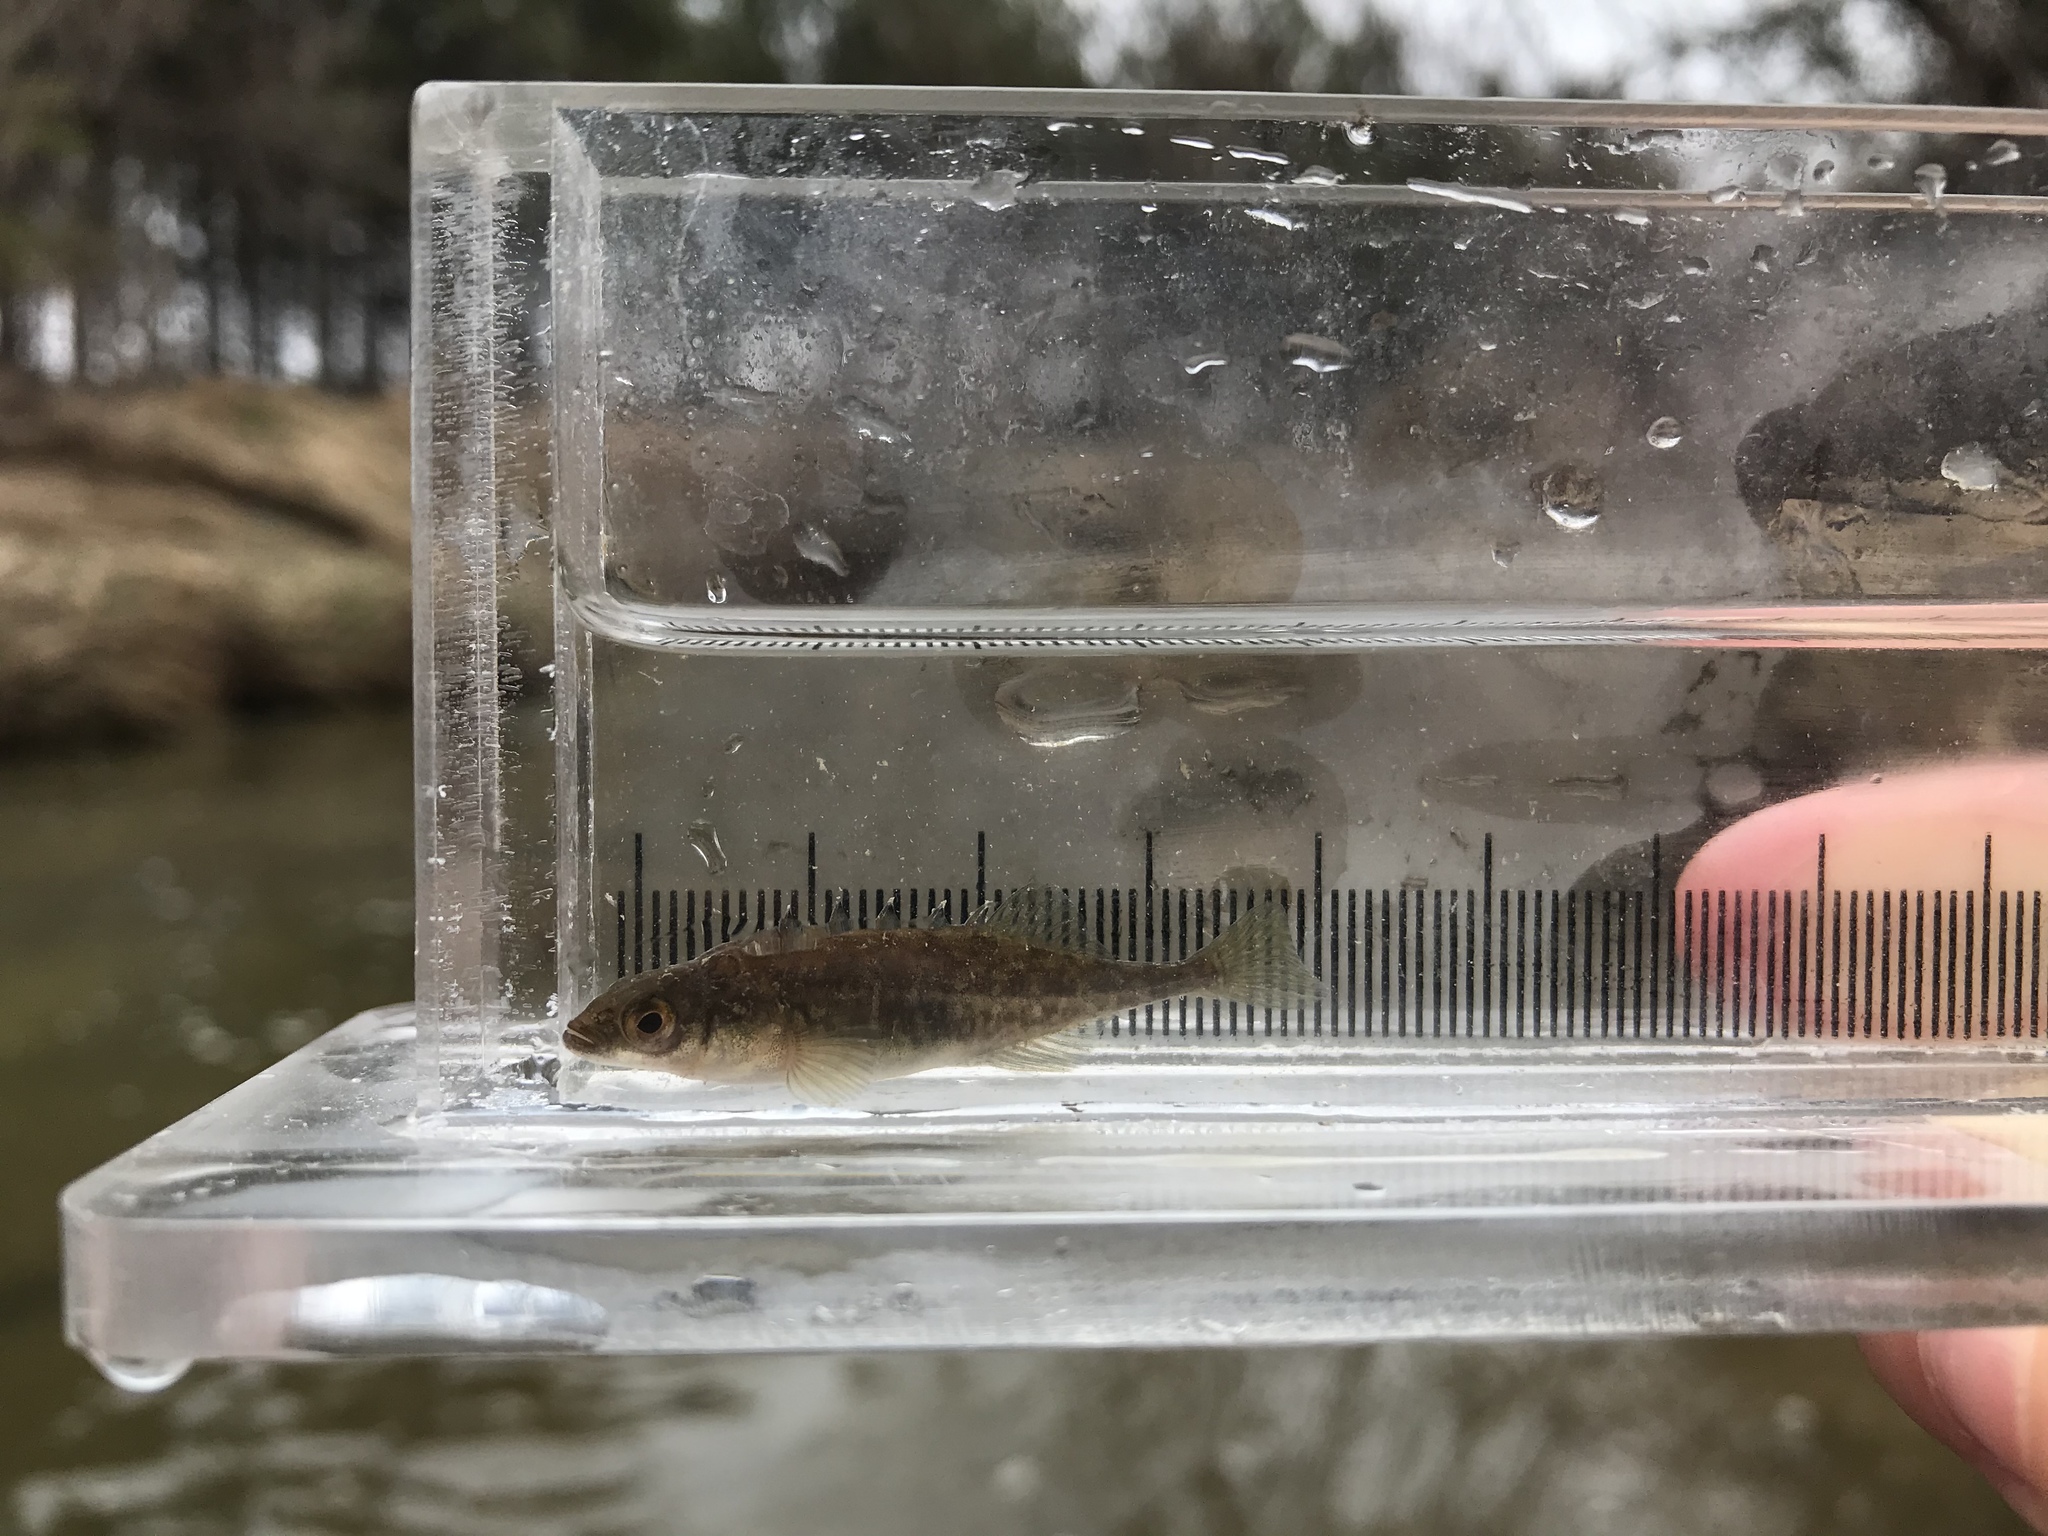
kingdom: Animalia
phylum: Chordata
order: Gasterosteiformes
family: Gasterosteidae
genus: Culaea
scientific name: Culaea inconstans
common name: Brook stickleback
